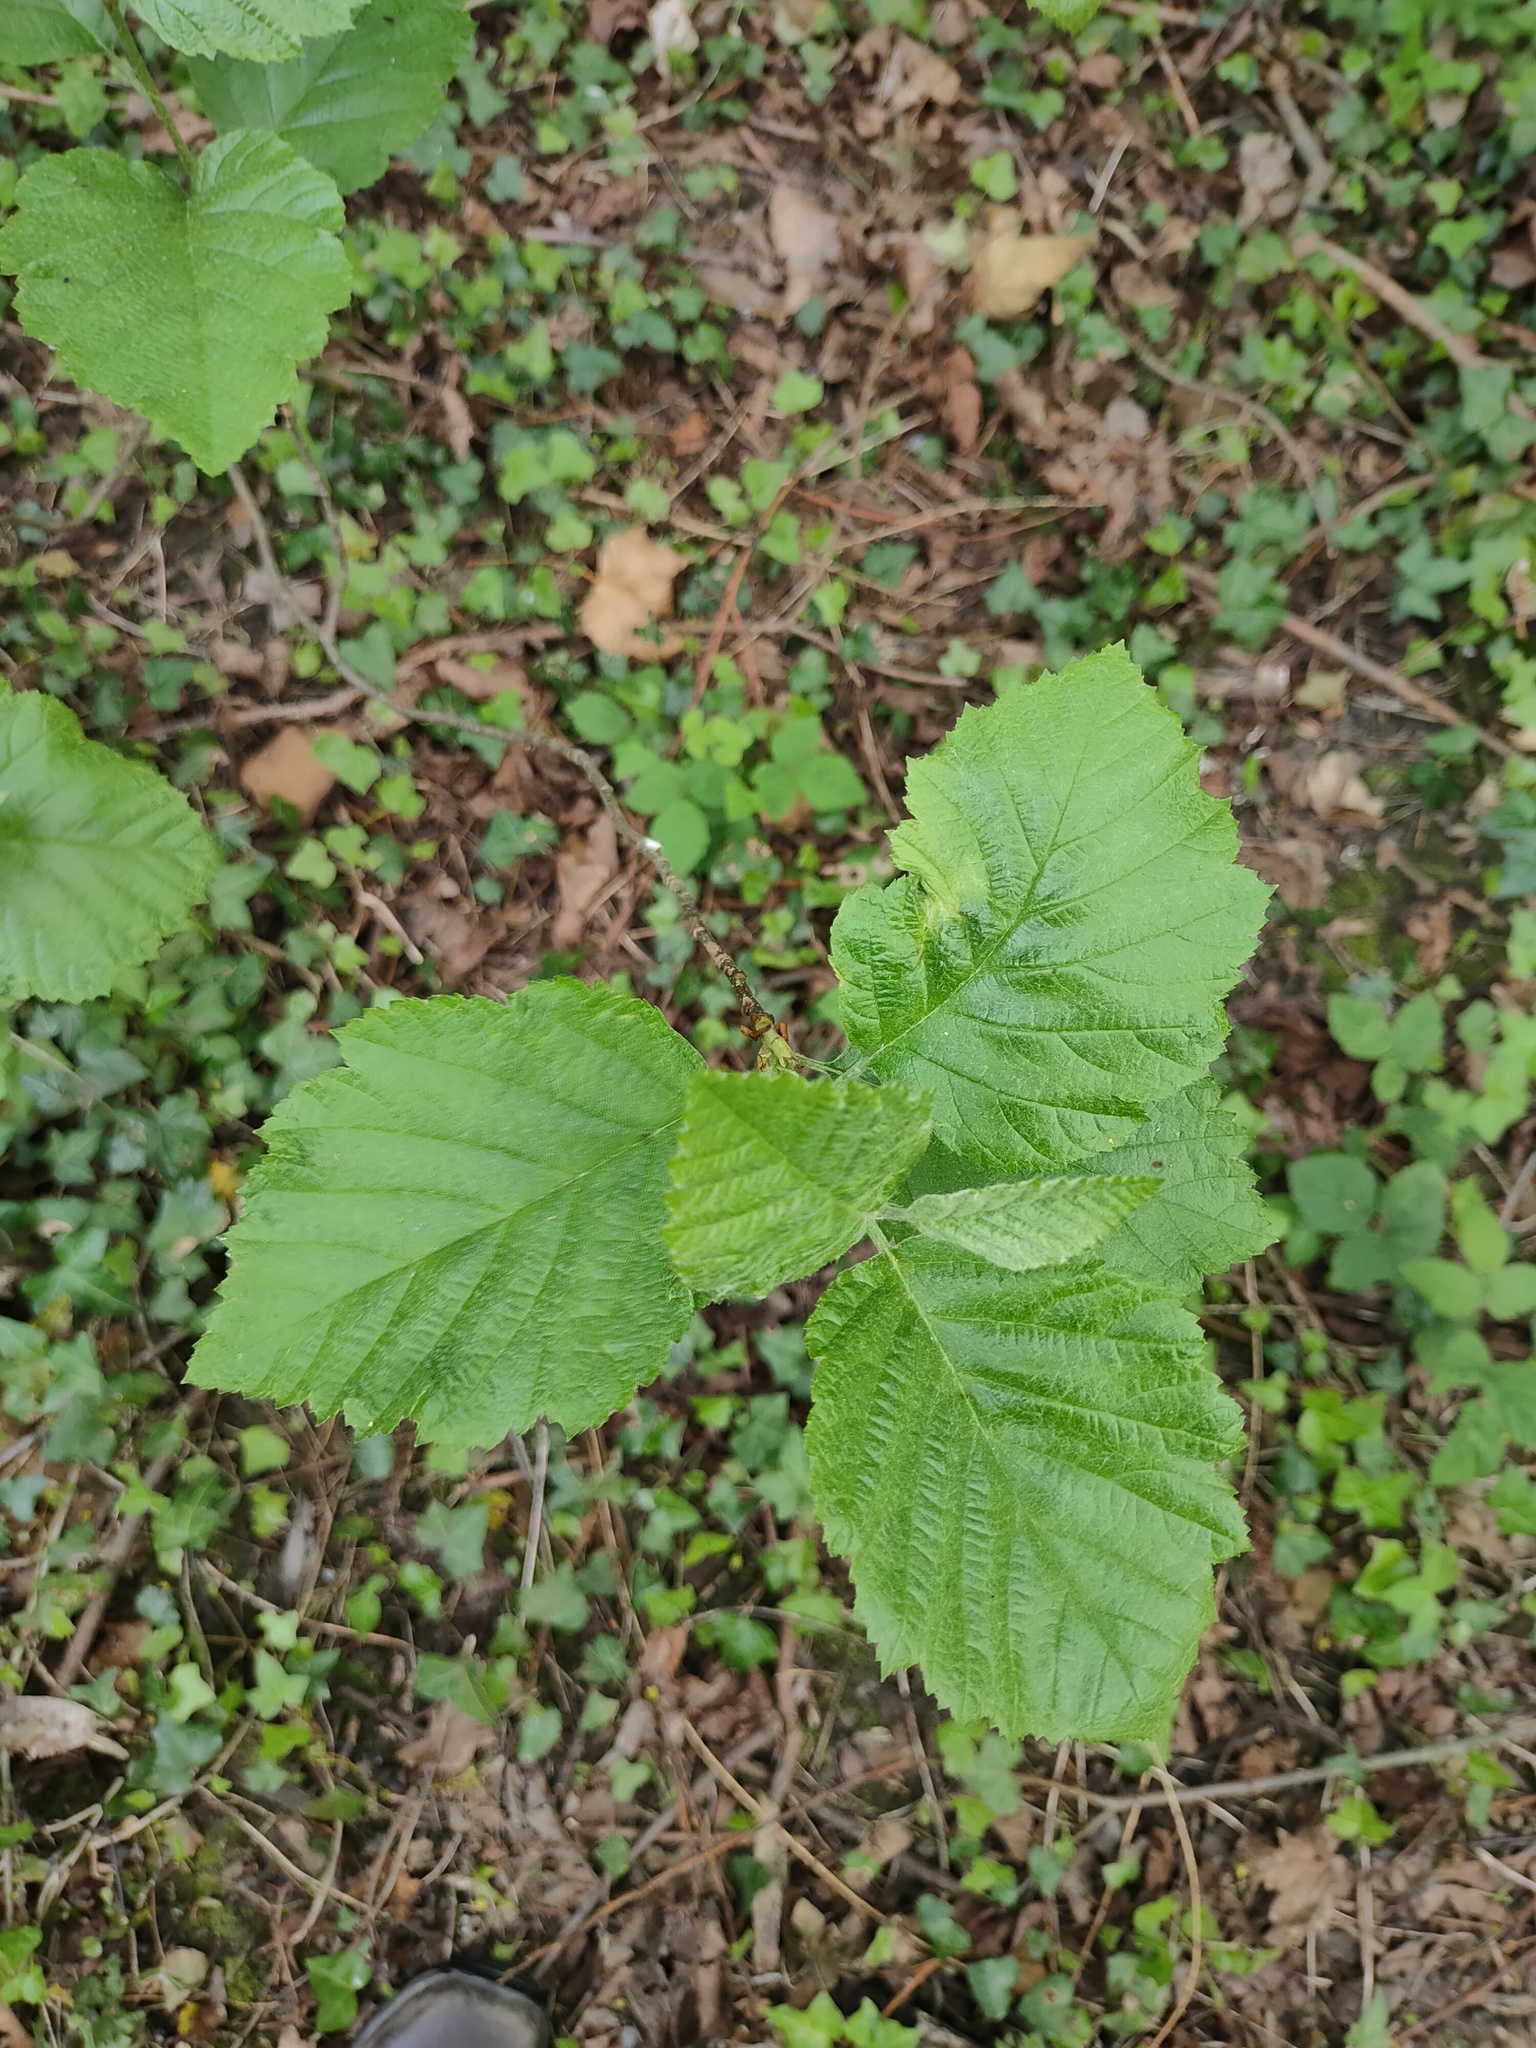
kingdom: Plantae
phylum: Tracheophyta
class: Magnoliopsida
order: Fagales
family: Betulaceae
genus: Corylus
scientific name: Corylus avellana
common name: European hazel
